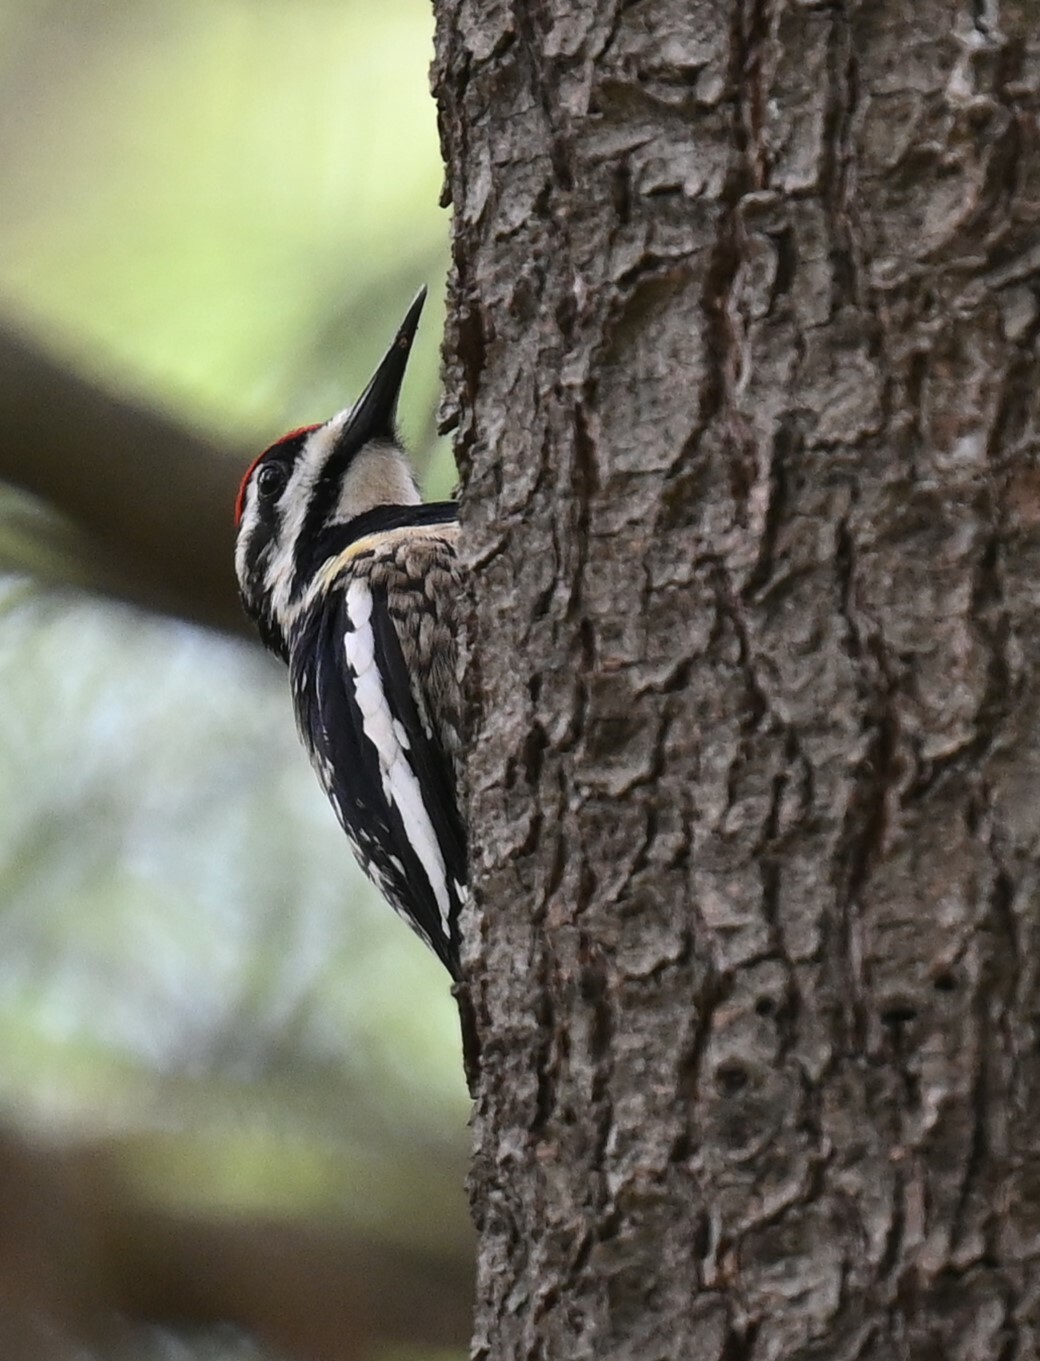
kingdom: Animalia
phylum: Chordata
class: Aves
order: Piciformes
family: Picidae
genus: Sphyrapicus
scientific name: Sphyrapicus varius
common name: Yellow-bellied sapsucker
